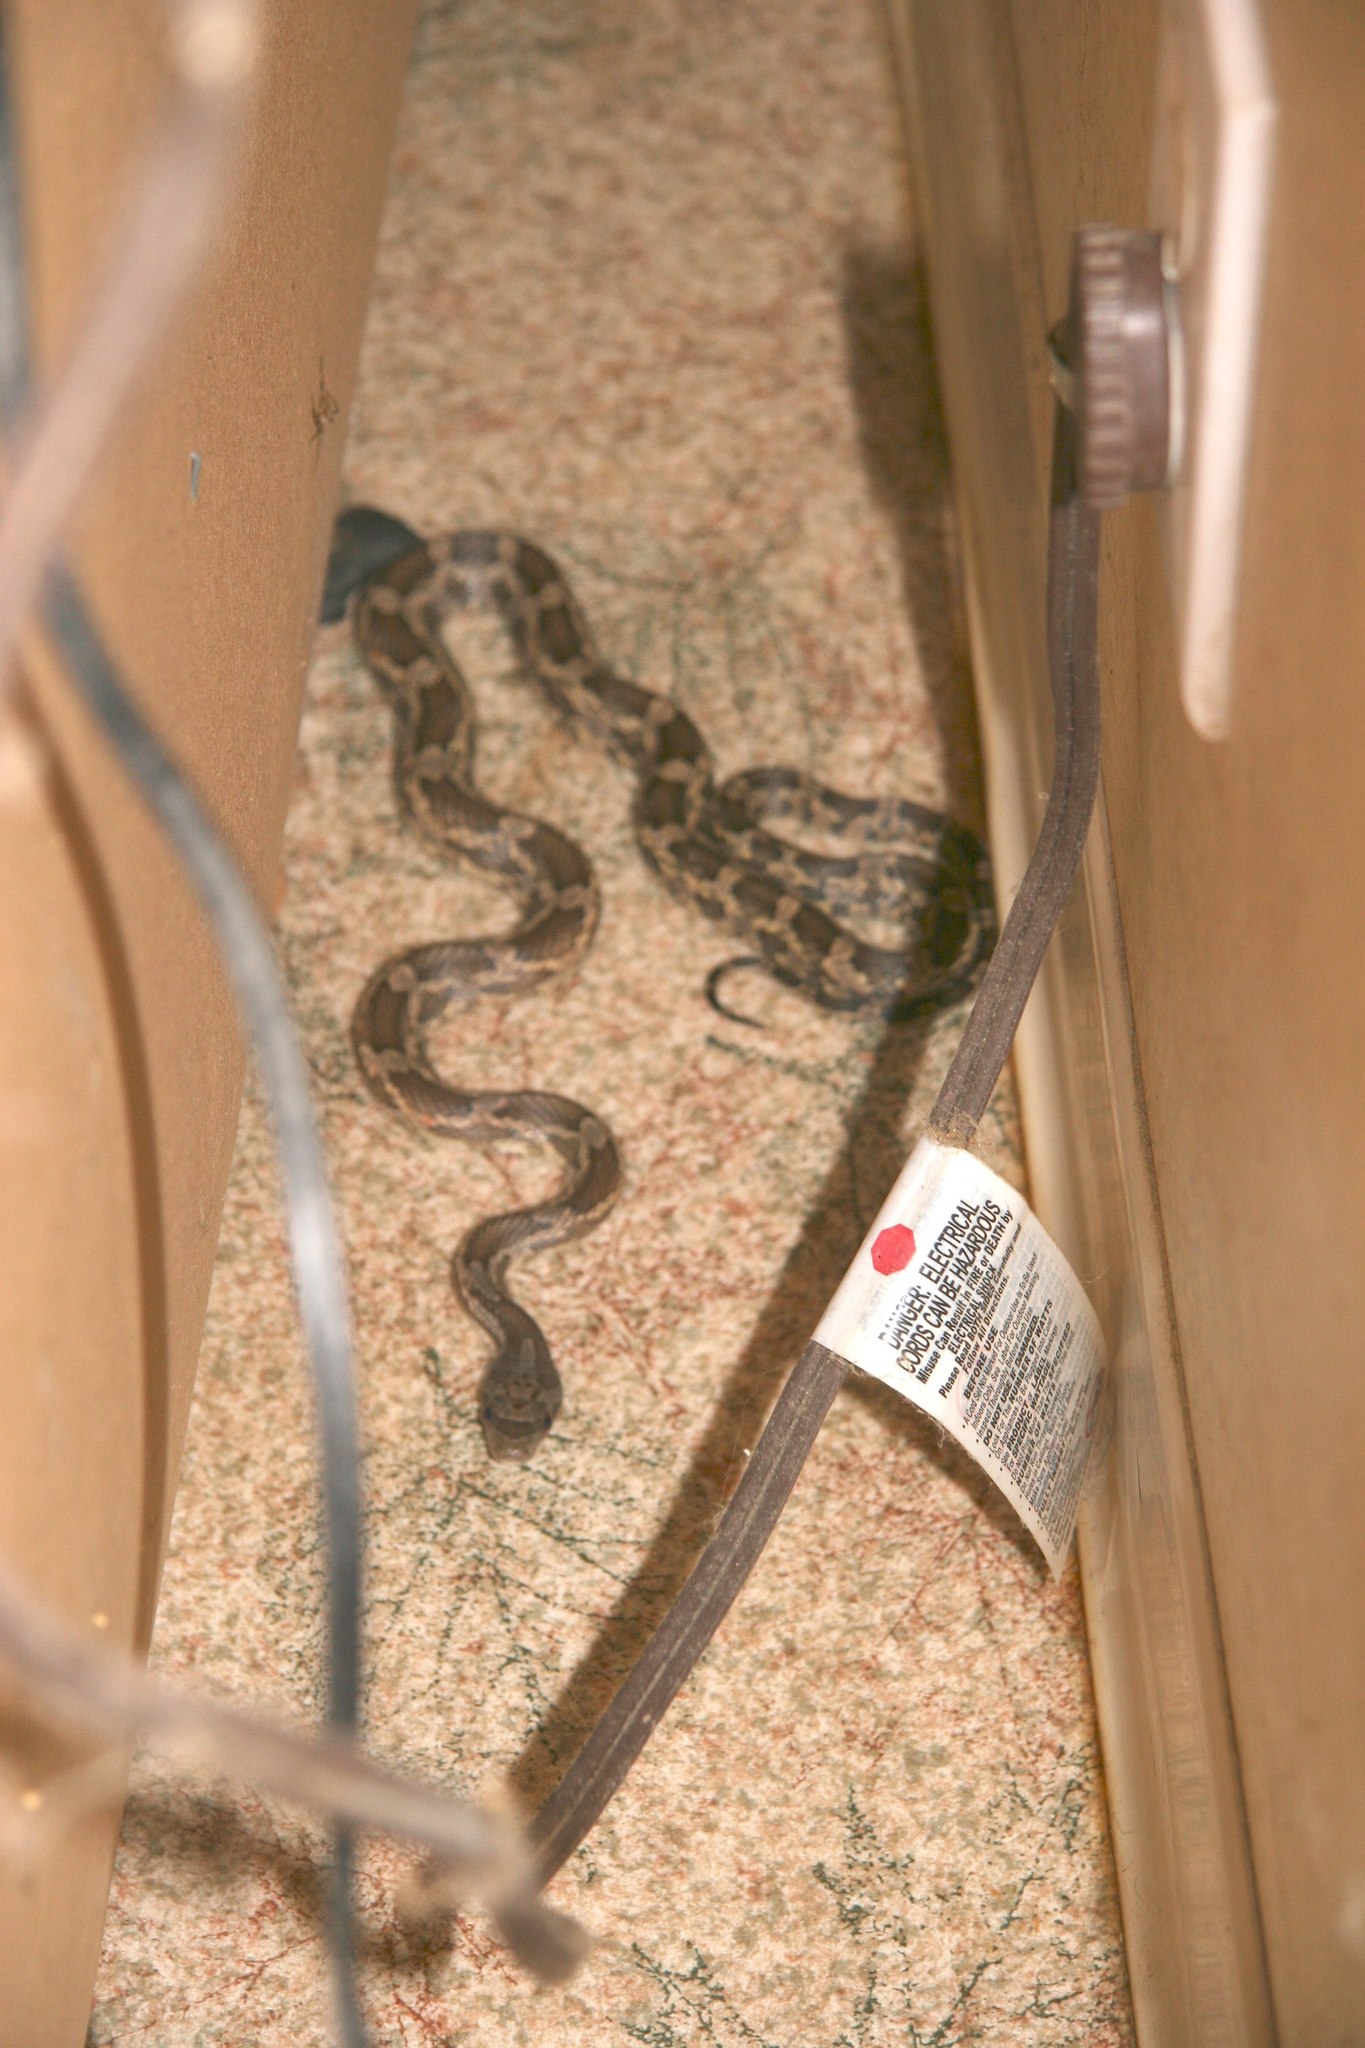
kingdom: Animalia
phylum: Chordata
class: Squamata
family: Colubridae
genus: Pantherophis
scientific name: Pantherophis obsoletus
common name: Black rat snake
